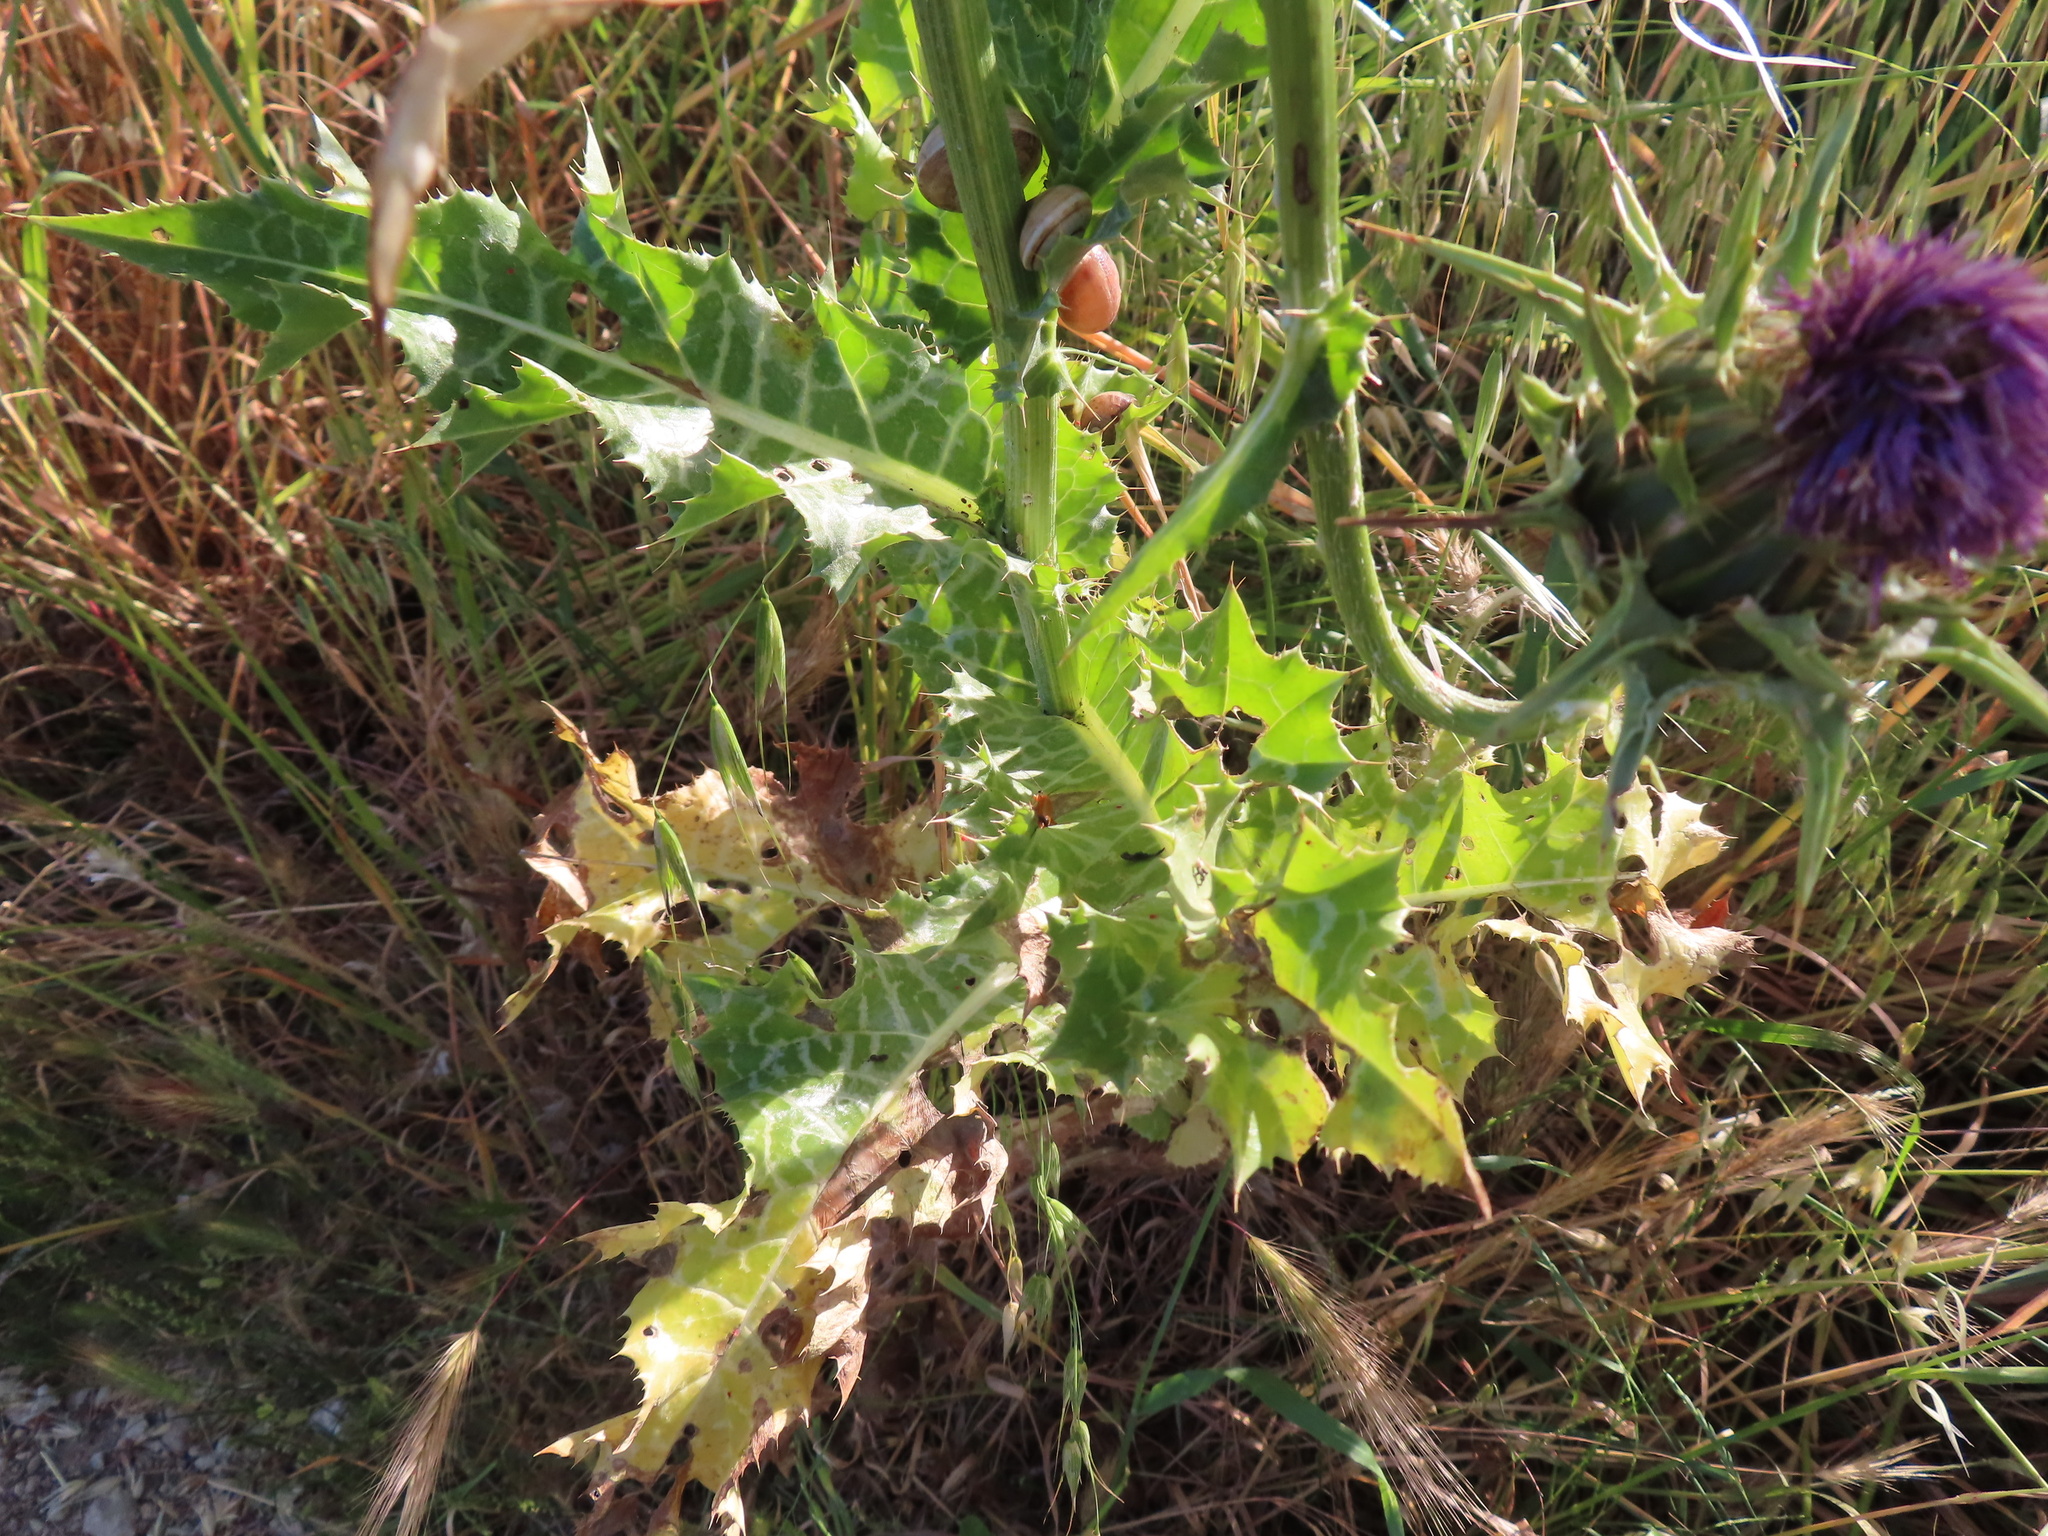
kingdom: Plantae
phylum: Tracheophyta
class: Magnoliopsida
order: Asterales
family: Asteraceae
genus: Silybum
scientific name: Silybum marianum
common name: Milk thistle
